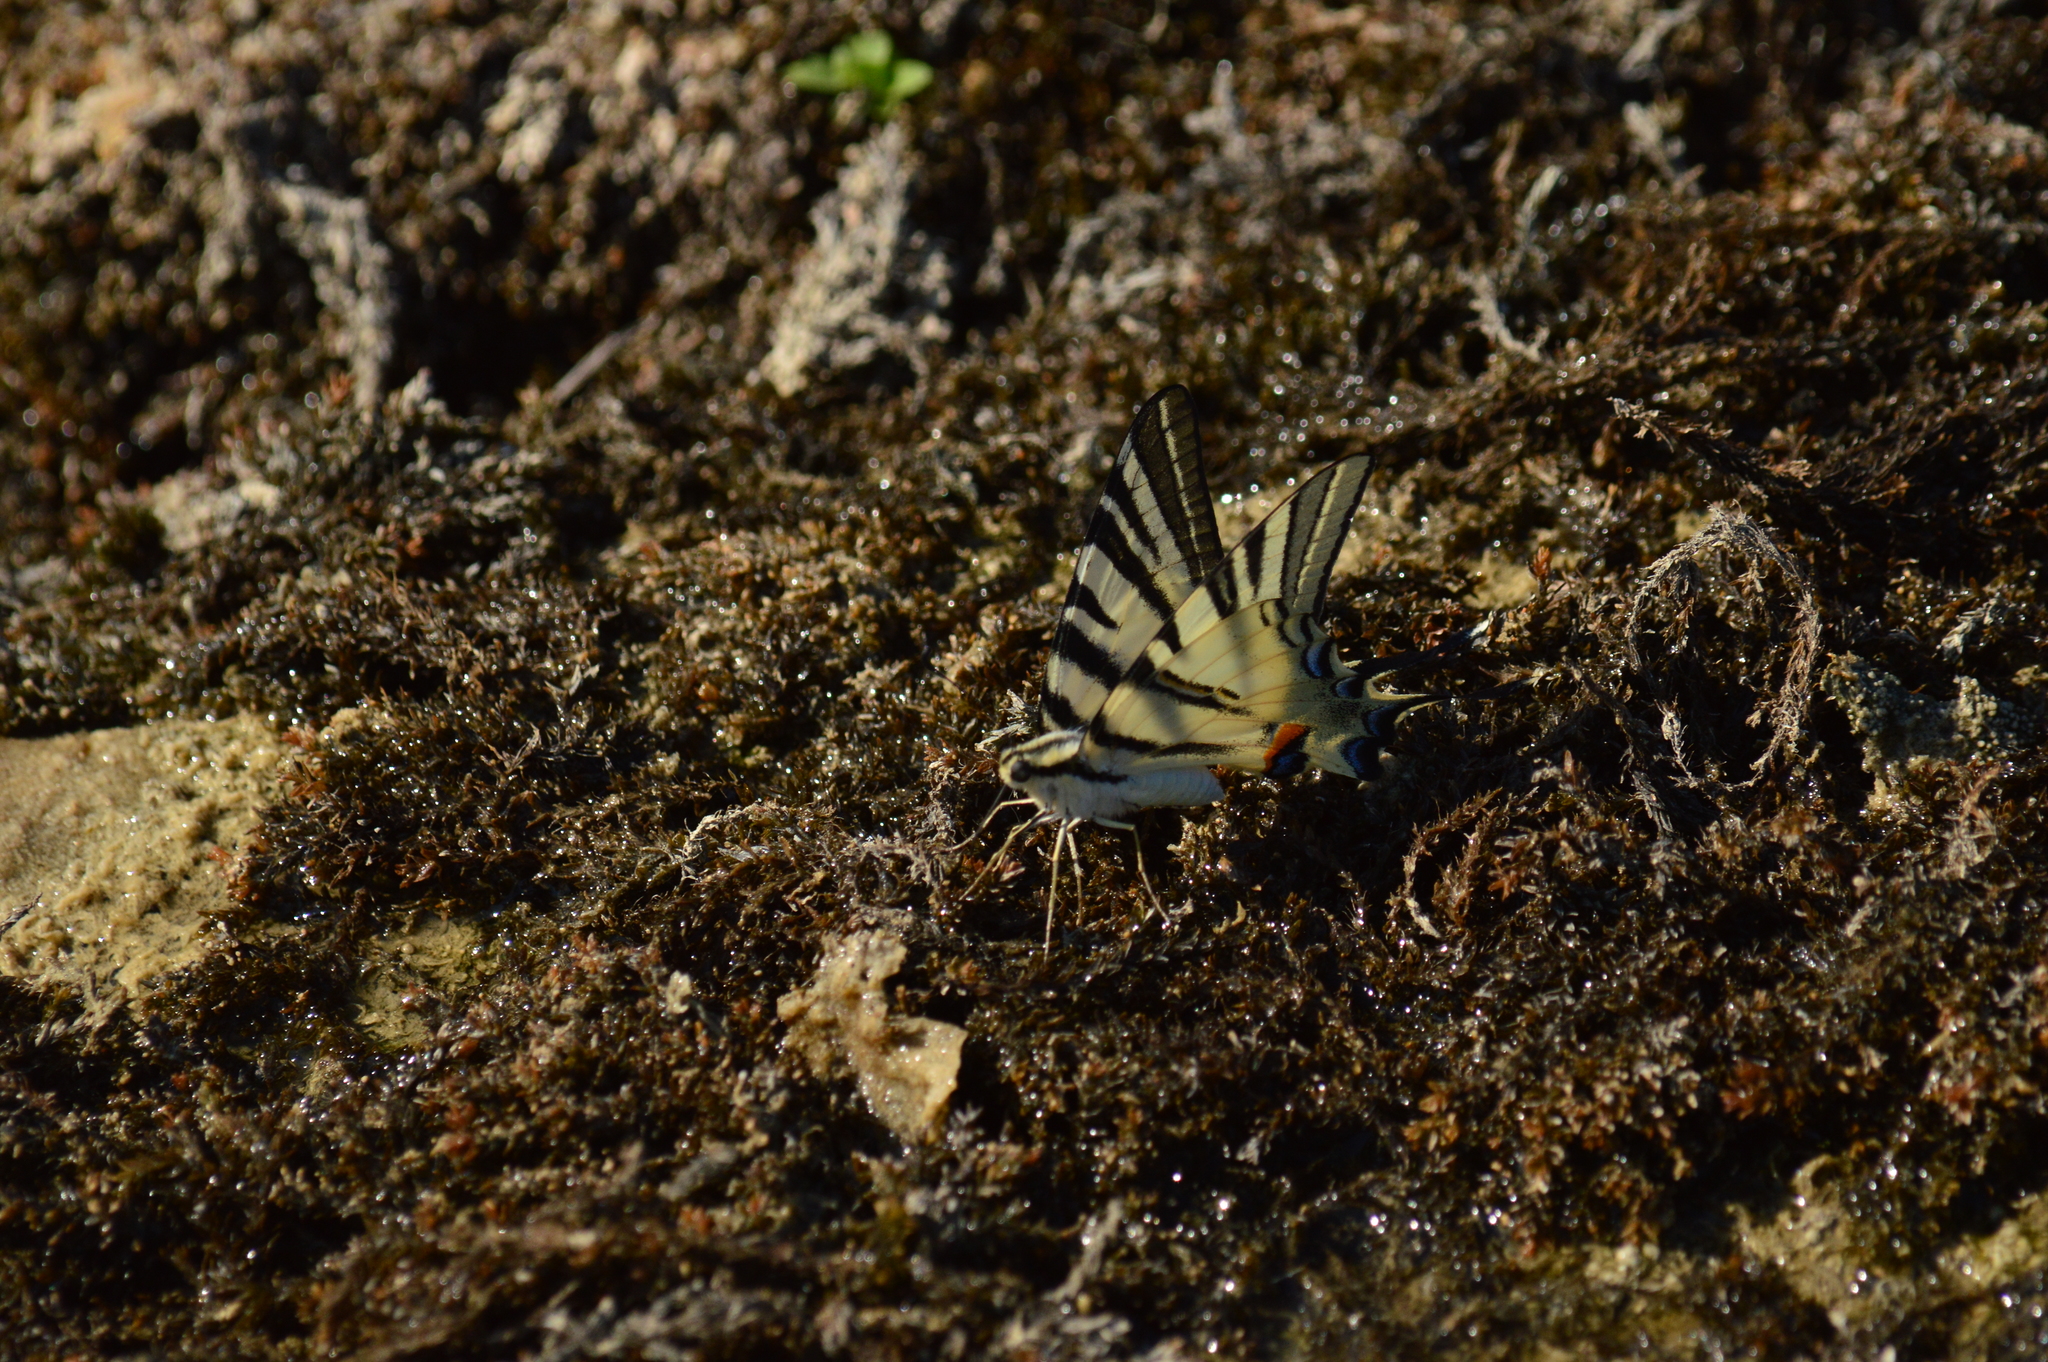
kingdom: Animalia
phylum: Arthropoda
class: Insecta
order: Lepidoptera
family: Papilionidae
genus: Iphiclides
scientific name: Iphiclides podalirius
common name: Scarce swallowtail
